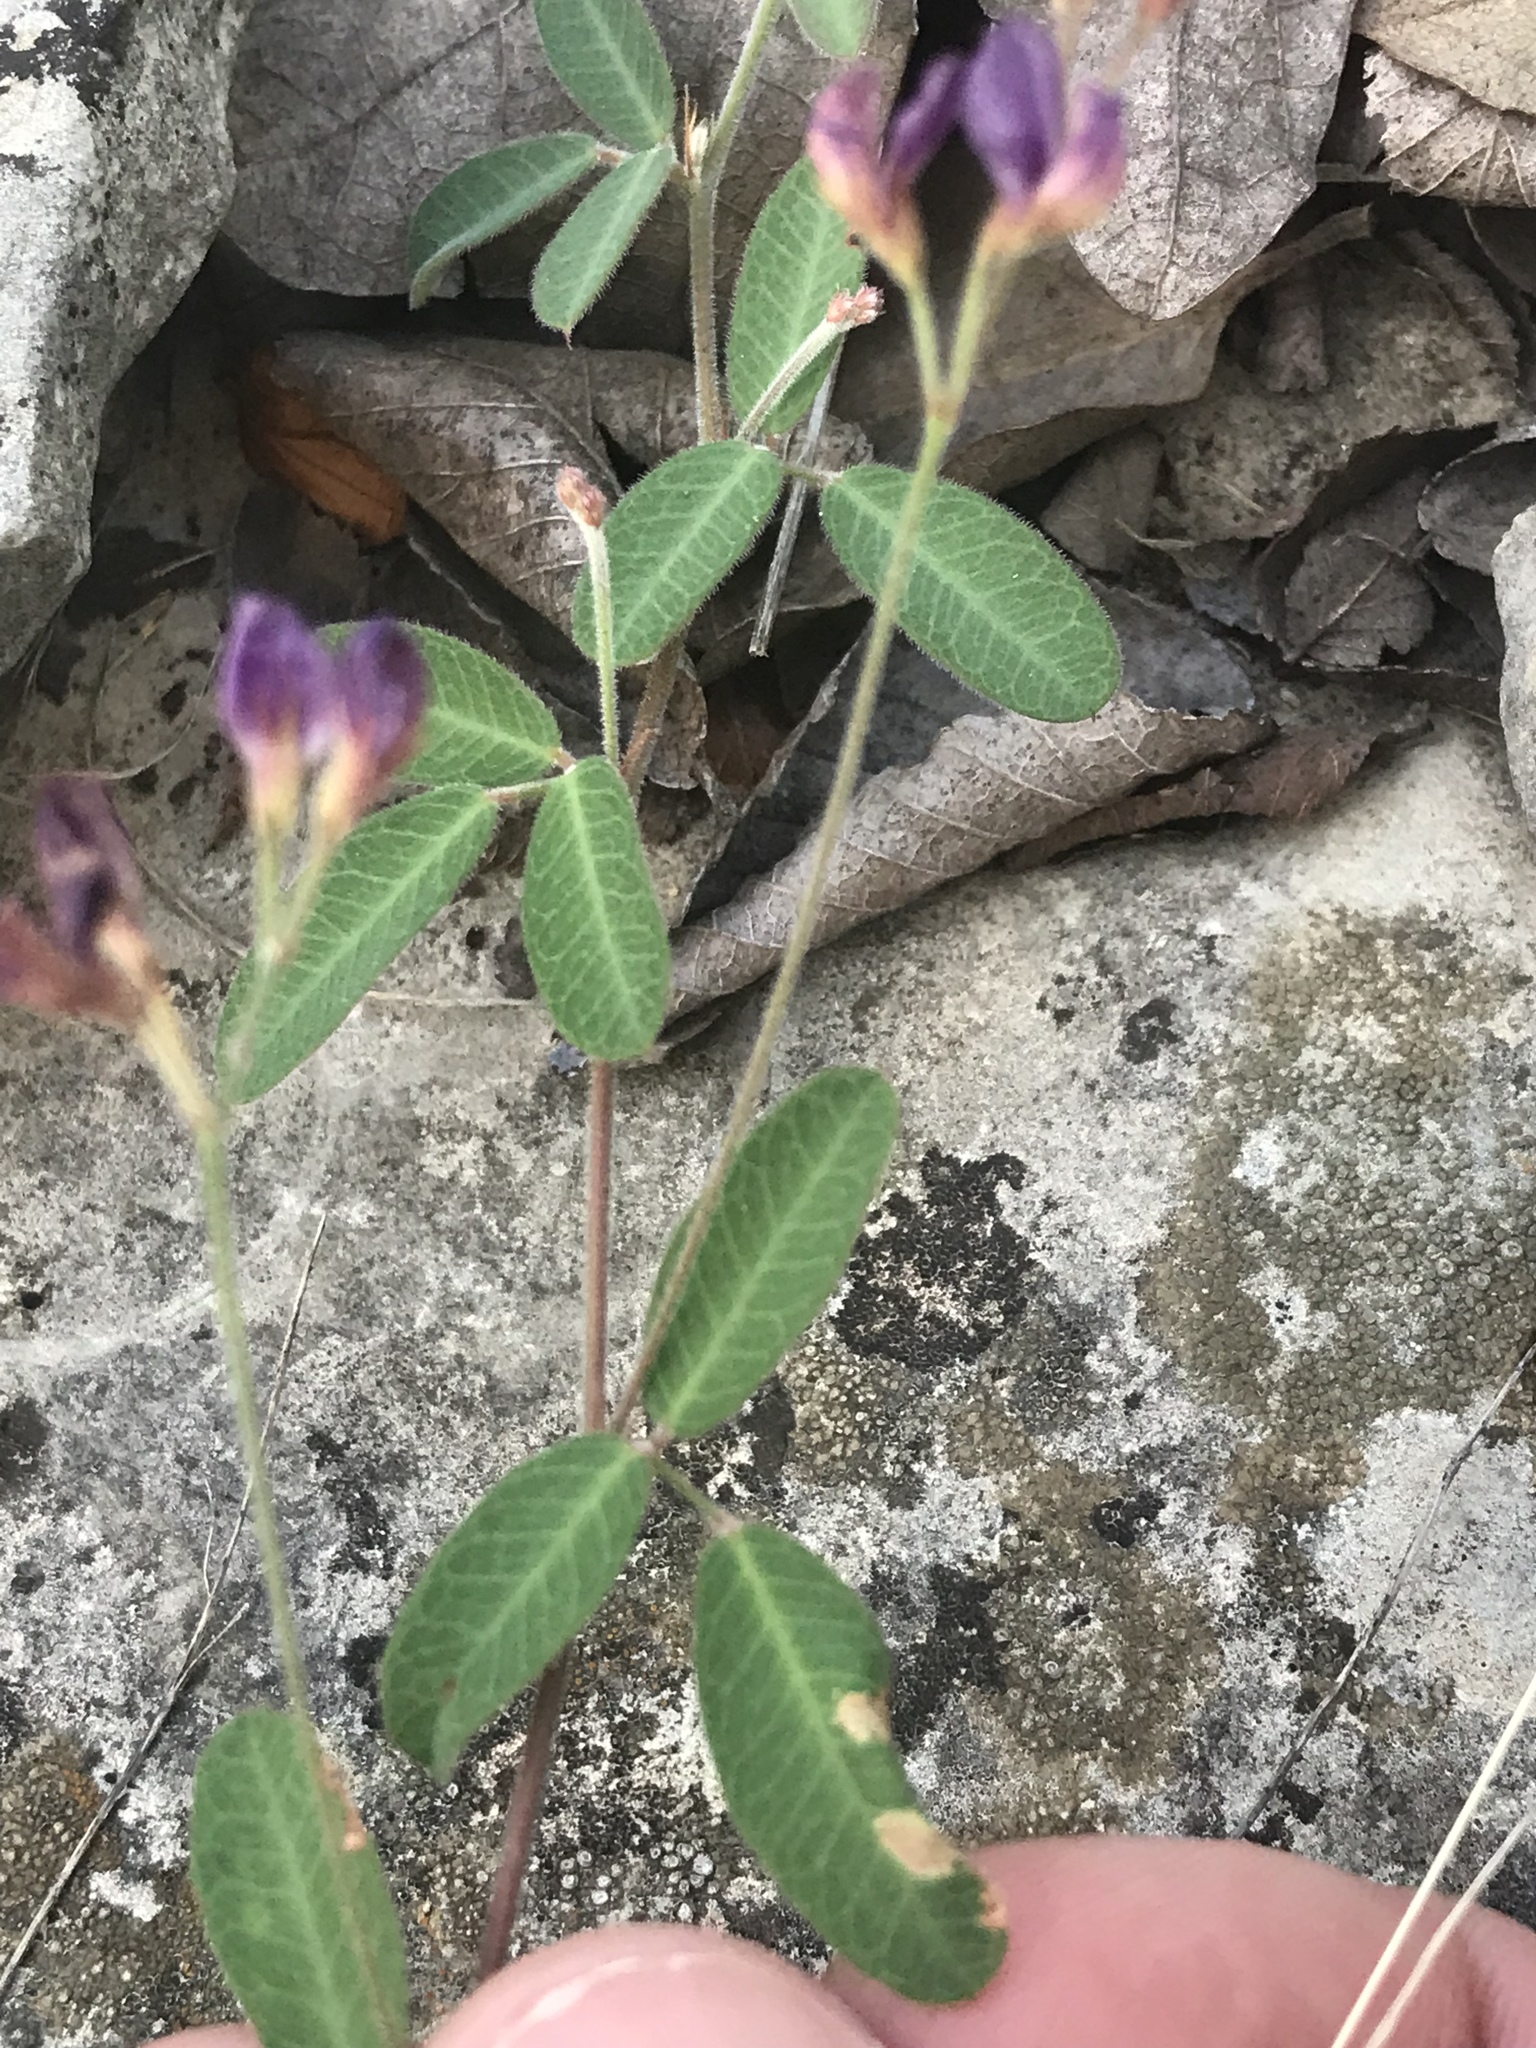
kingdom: Plantae
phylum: Tracheophyta
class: Magnoliopsida
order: Fabales
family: Fabaceae
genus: Lespedeza
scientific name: Lespedeza texana
